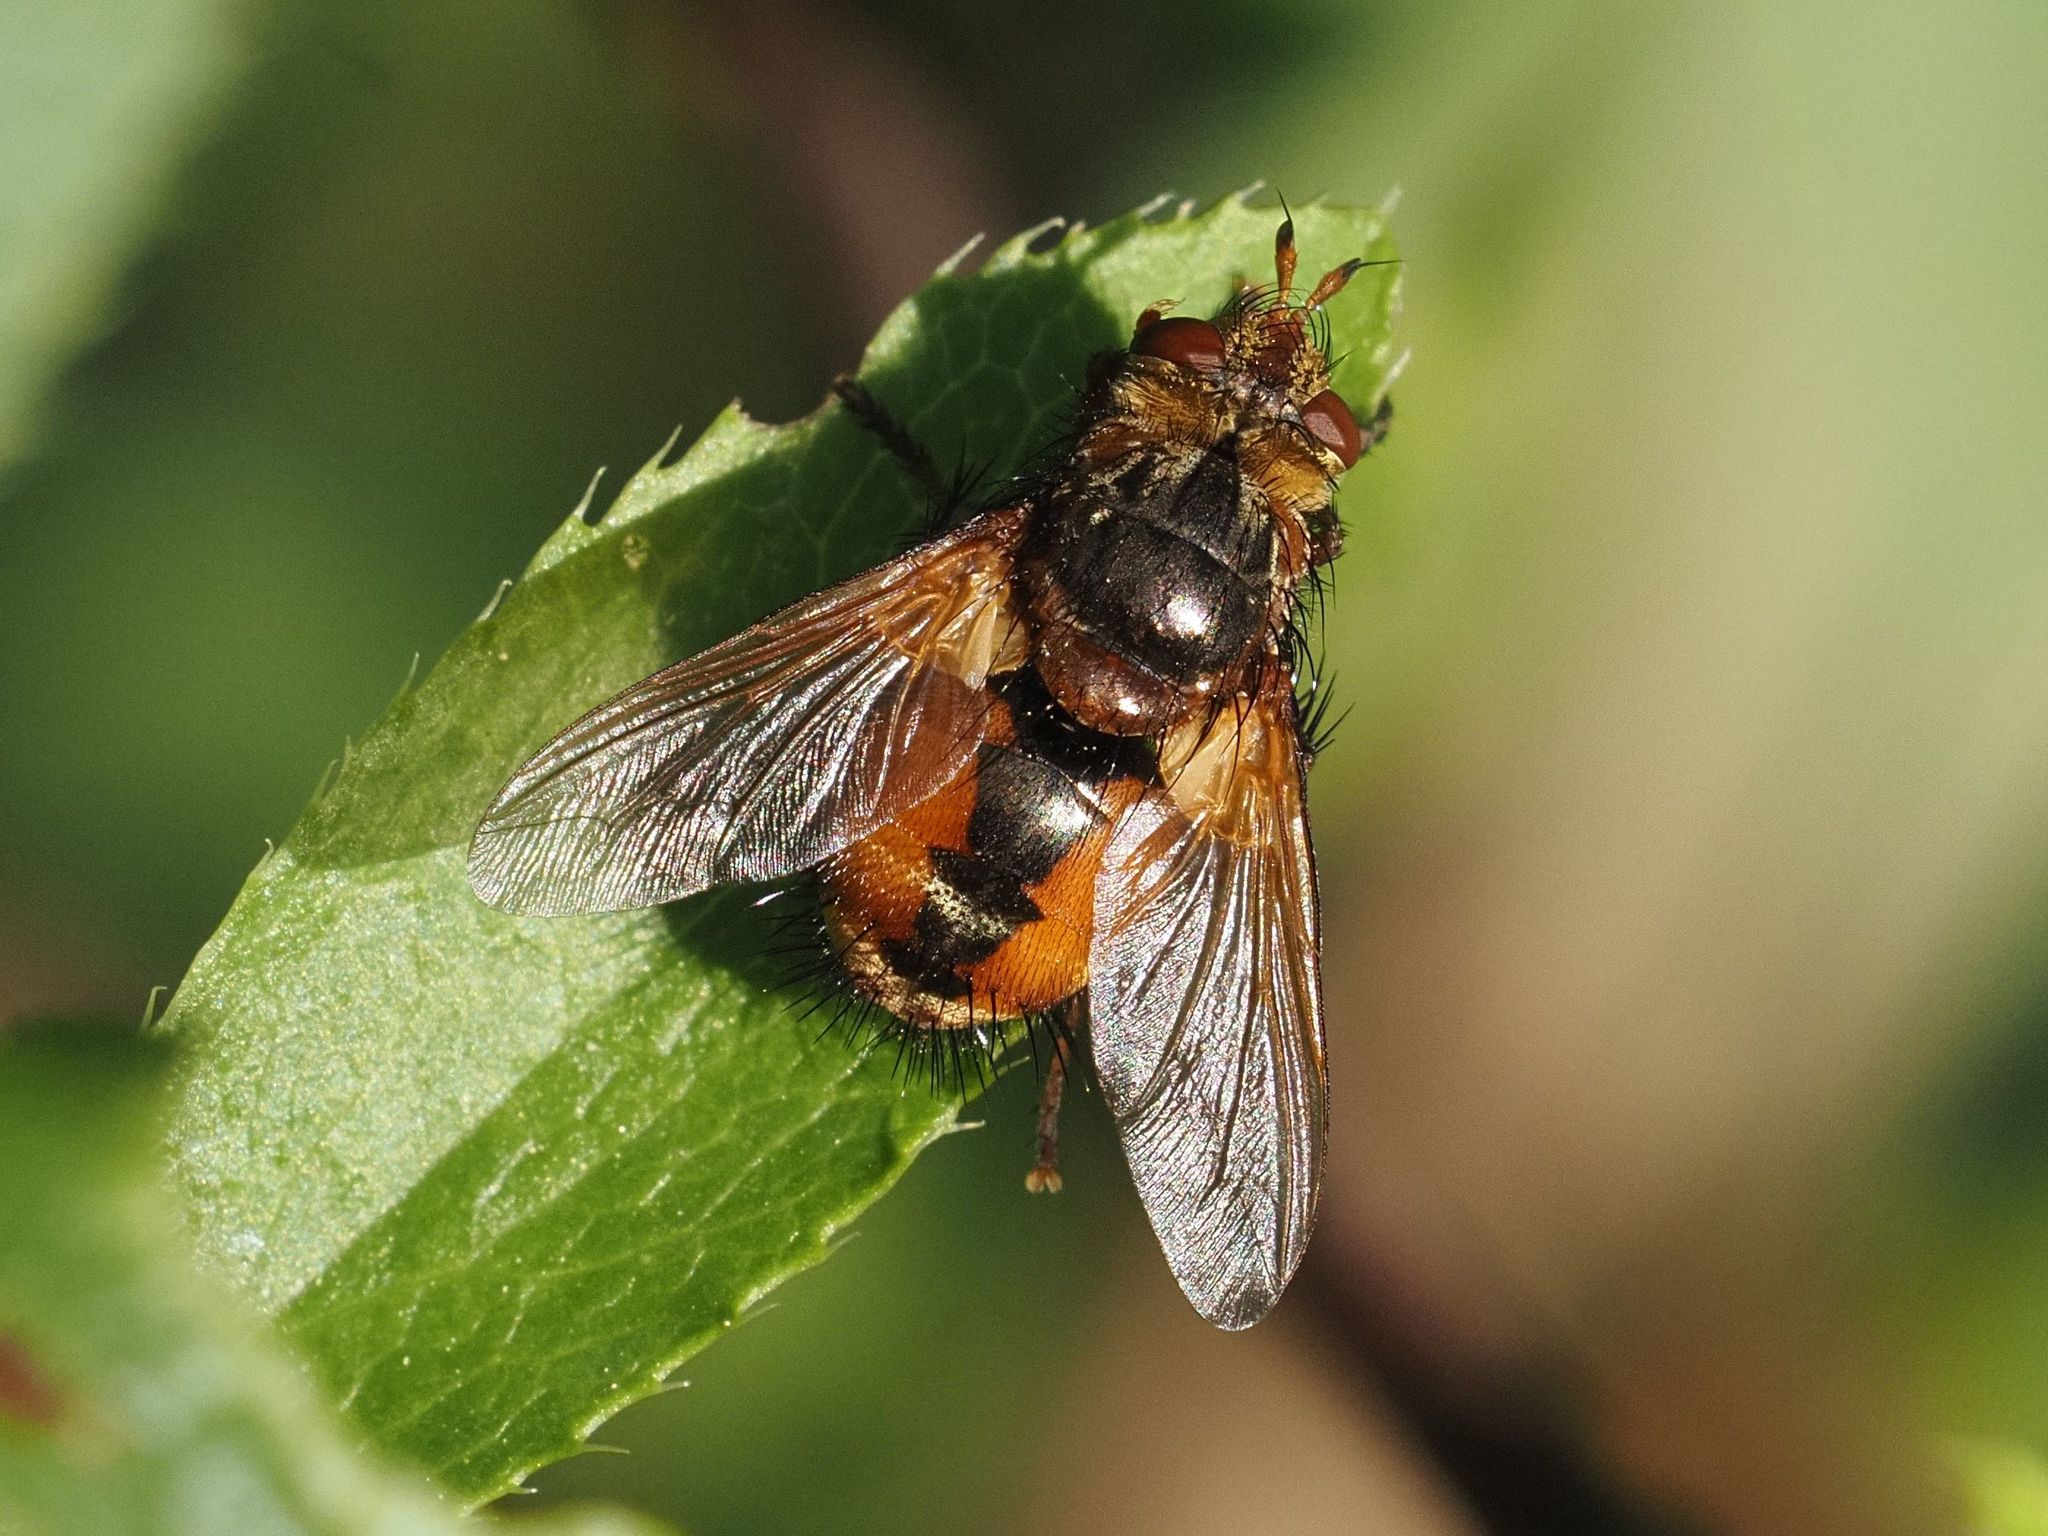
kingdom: Animalia
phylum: Arthropoda
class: Insecta
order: Diptera
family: Tachinidae
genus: Tachina
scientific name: Tachina fera
